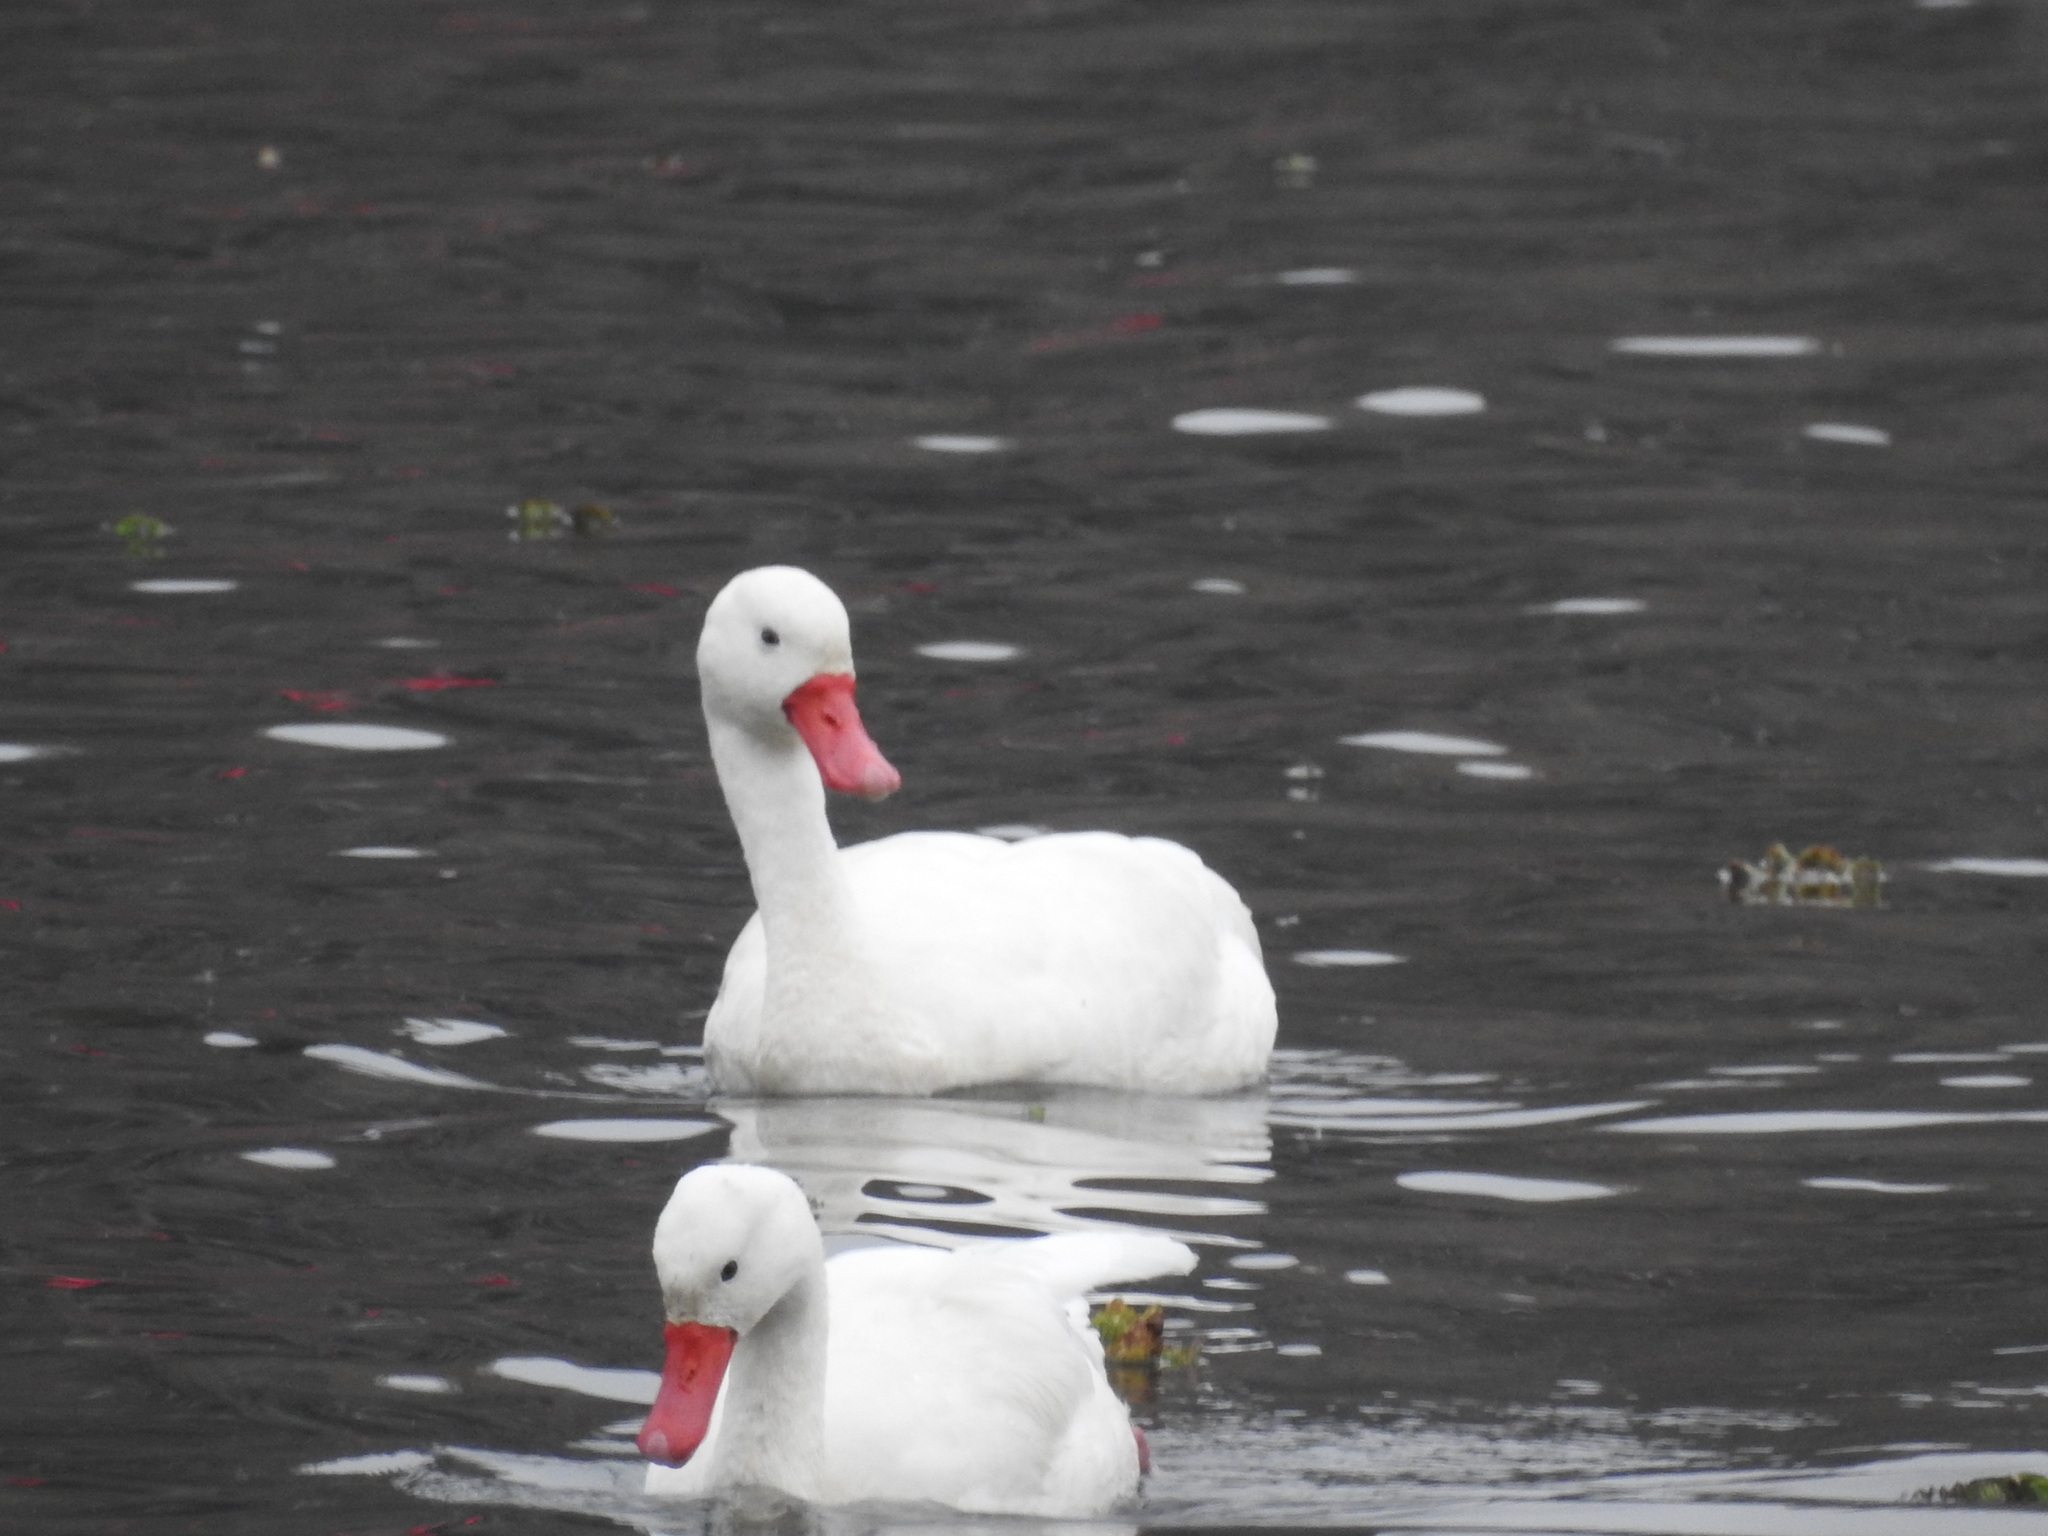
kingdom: Animalia
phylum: Chordata
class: Aves
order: Anseriformes
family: Anatidae
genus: Coscoroba
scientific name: Coscoroba coscoroba
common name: Coscoroba swan
